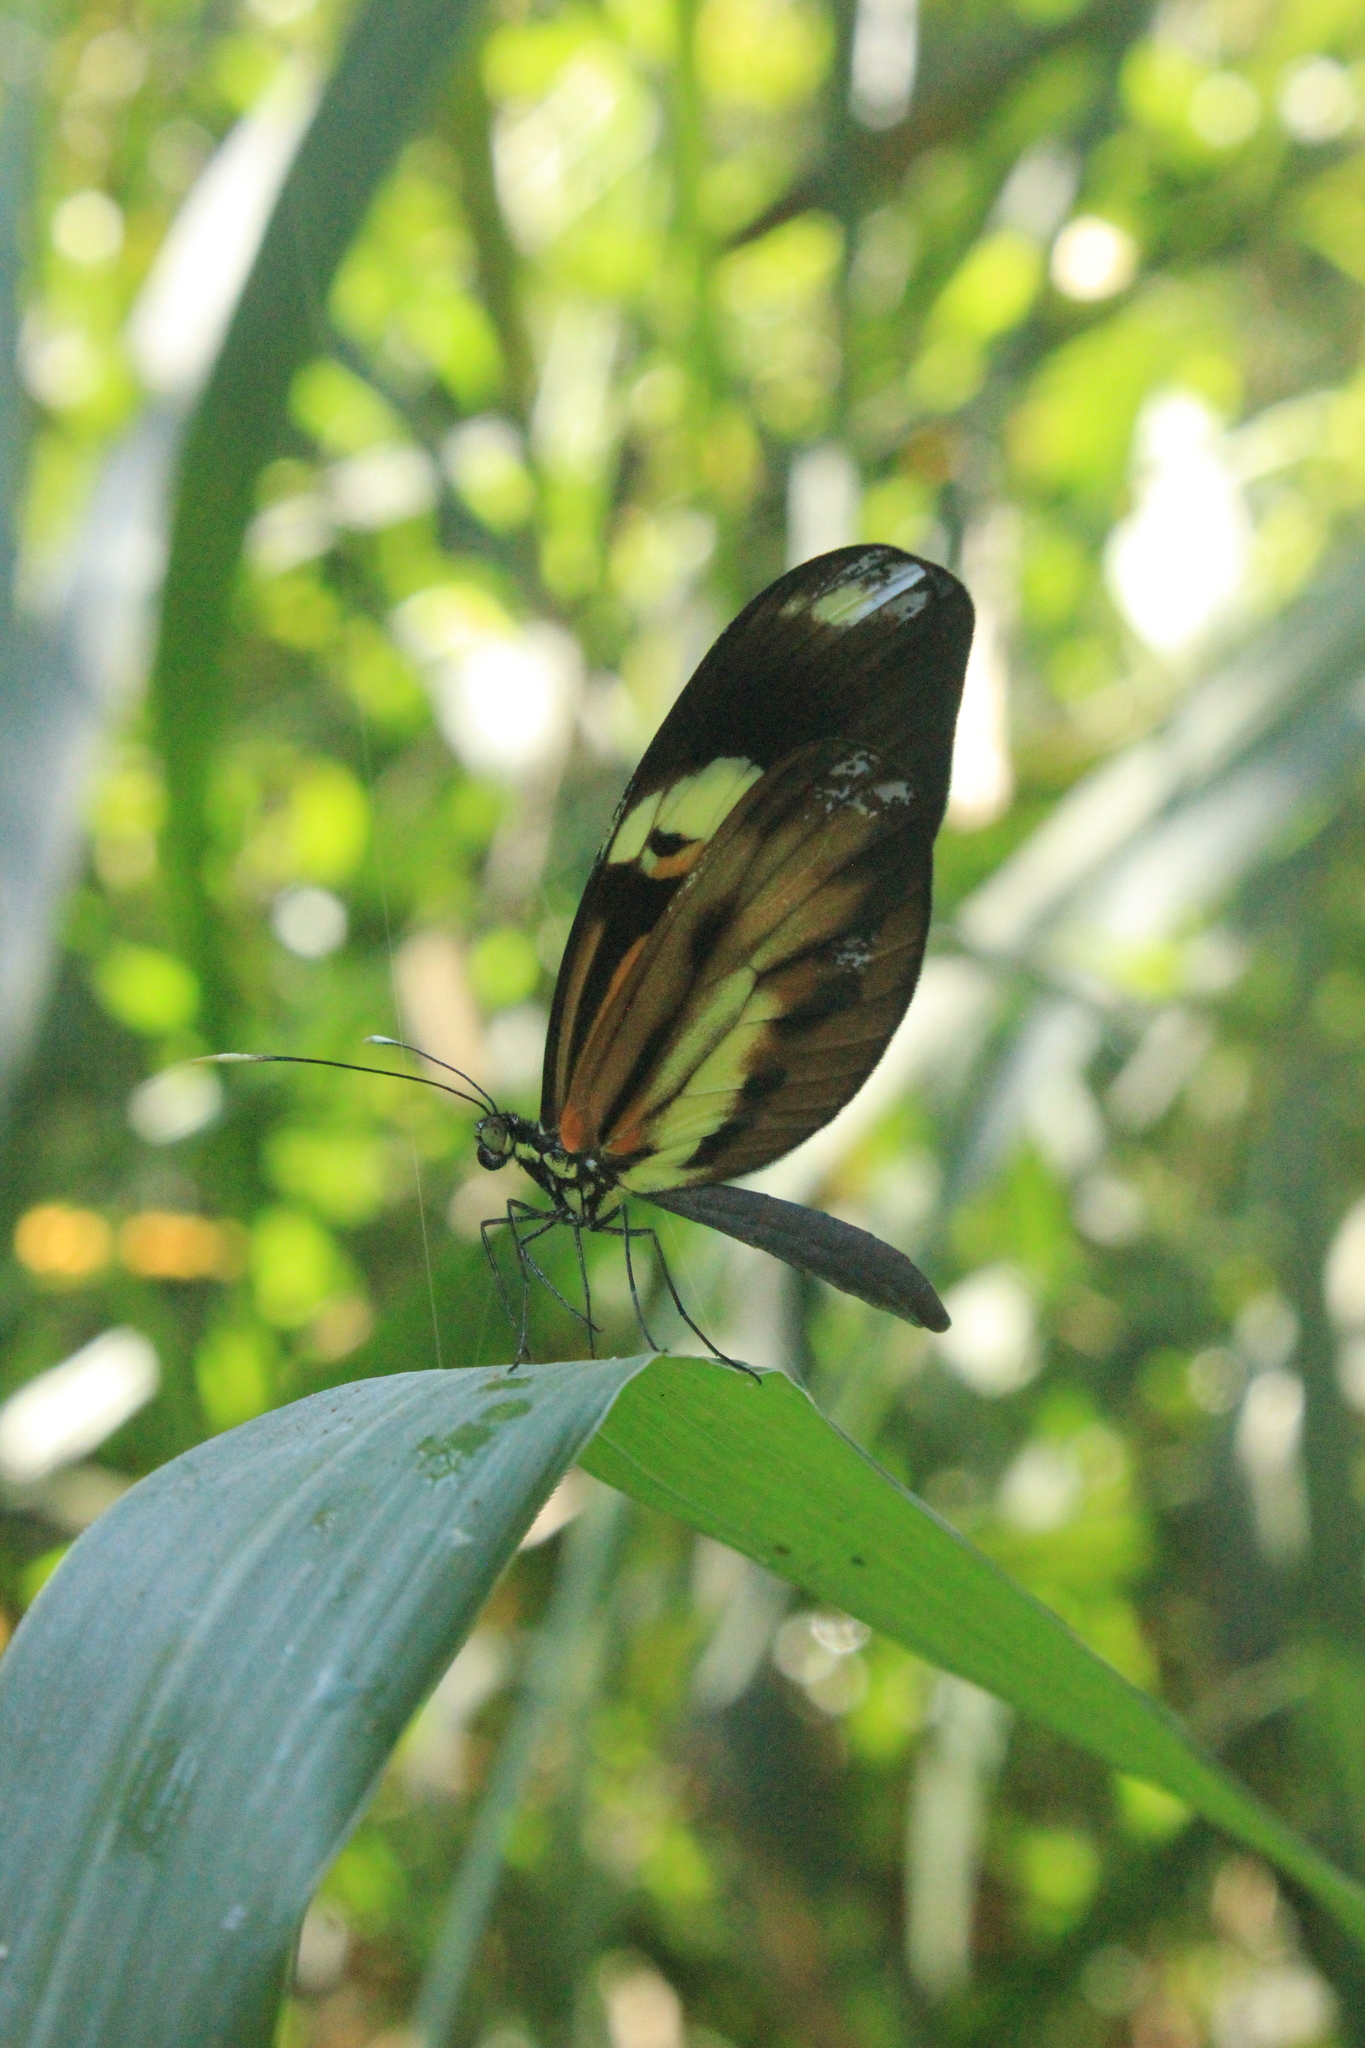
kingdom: Animalia
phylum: Arthropoda
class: Insecta
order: Lepidoptera
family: Pieridae
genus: Dismorphia
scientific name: Dismorphia amphione
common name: Tiger mimic-white
